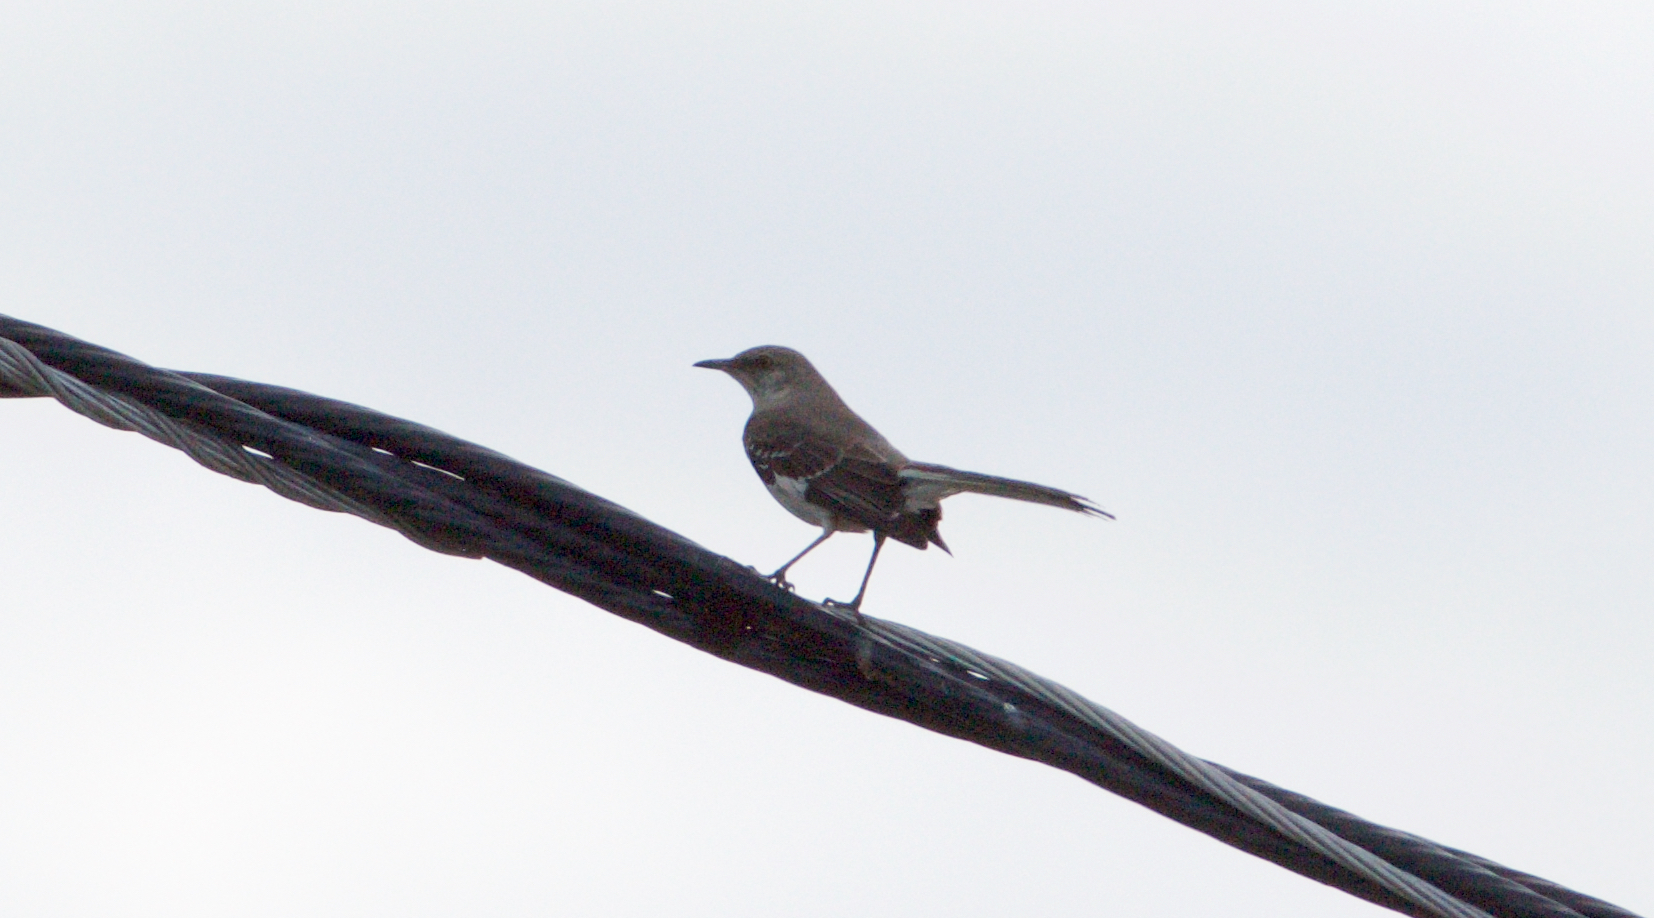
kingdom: Animalia
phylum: Chordata
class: Aves
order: Passeriformes
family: Mimidae
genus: Mimus
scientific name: Mimus polyglottos
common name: Northern mockingbird
